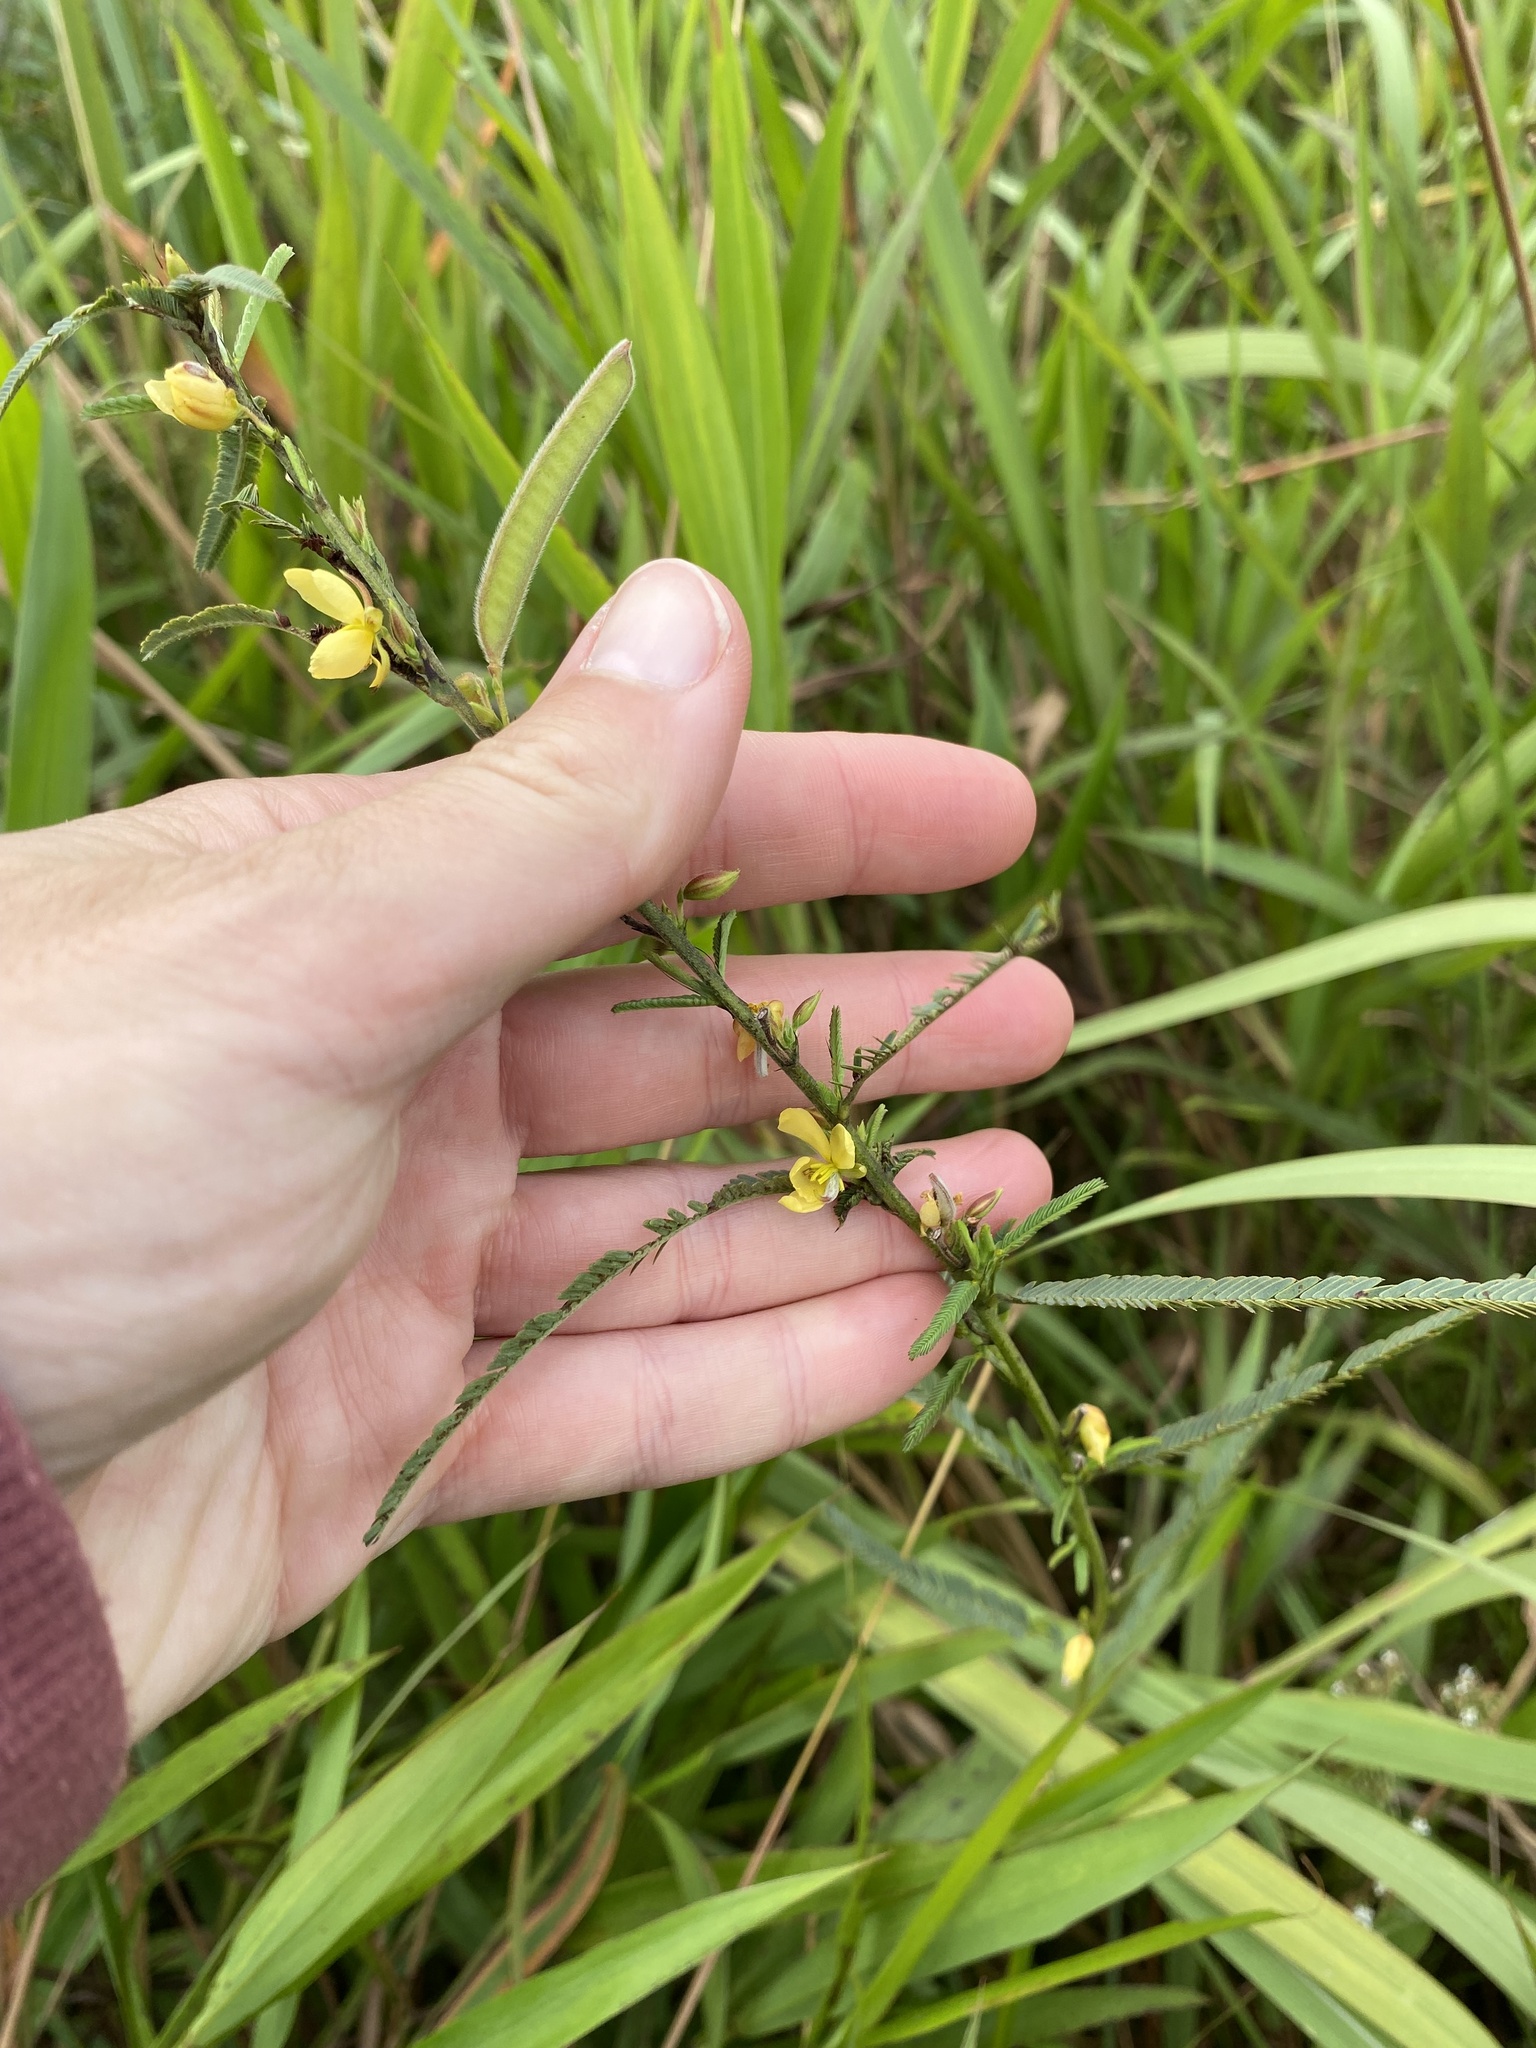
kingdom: Plantae
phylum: Tracheophyta
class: Magnoliopsida
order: Fabales
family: Fabaceae
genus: Chamaecrista
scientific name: Chamaecrista mimosoides
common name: Fish-bone cassia
